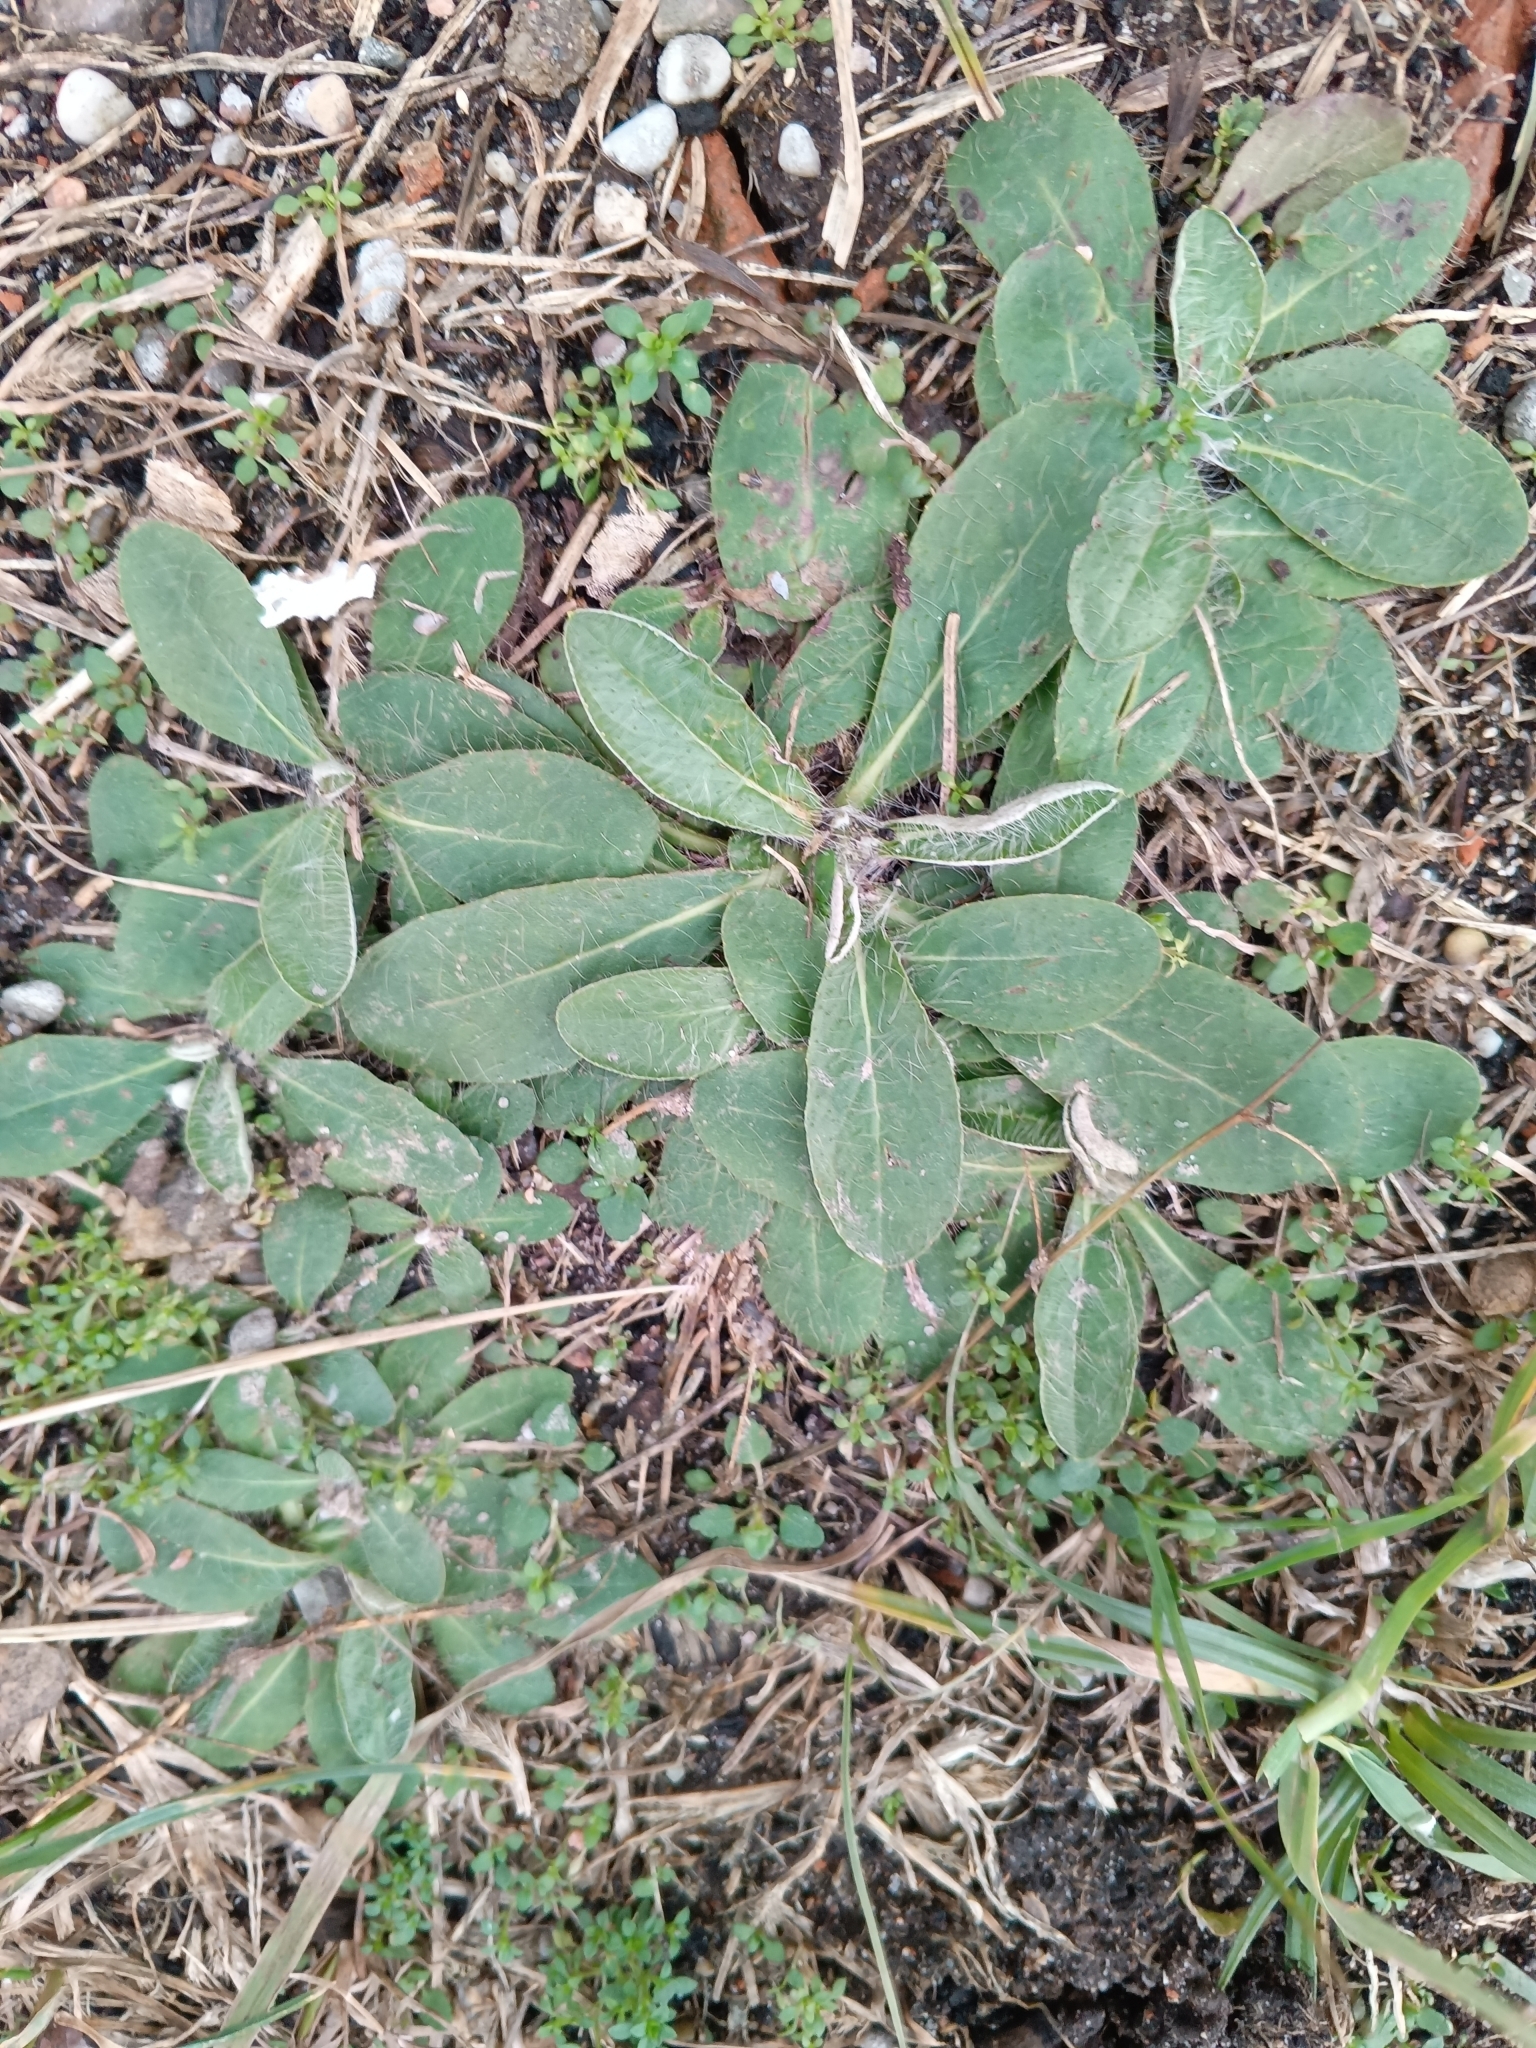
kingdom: Plantae
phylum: Tracheophyta
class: Magnoliopsida
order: Asterales
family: Asteraceae
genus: Pilosella
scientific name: Pilosella officinarum
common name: Mouse-ear hawkweed
